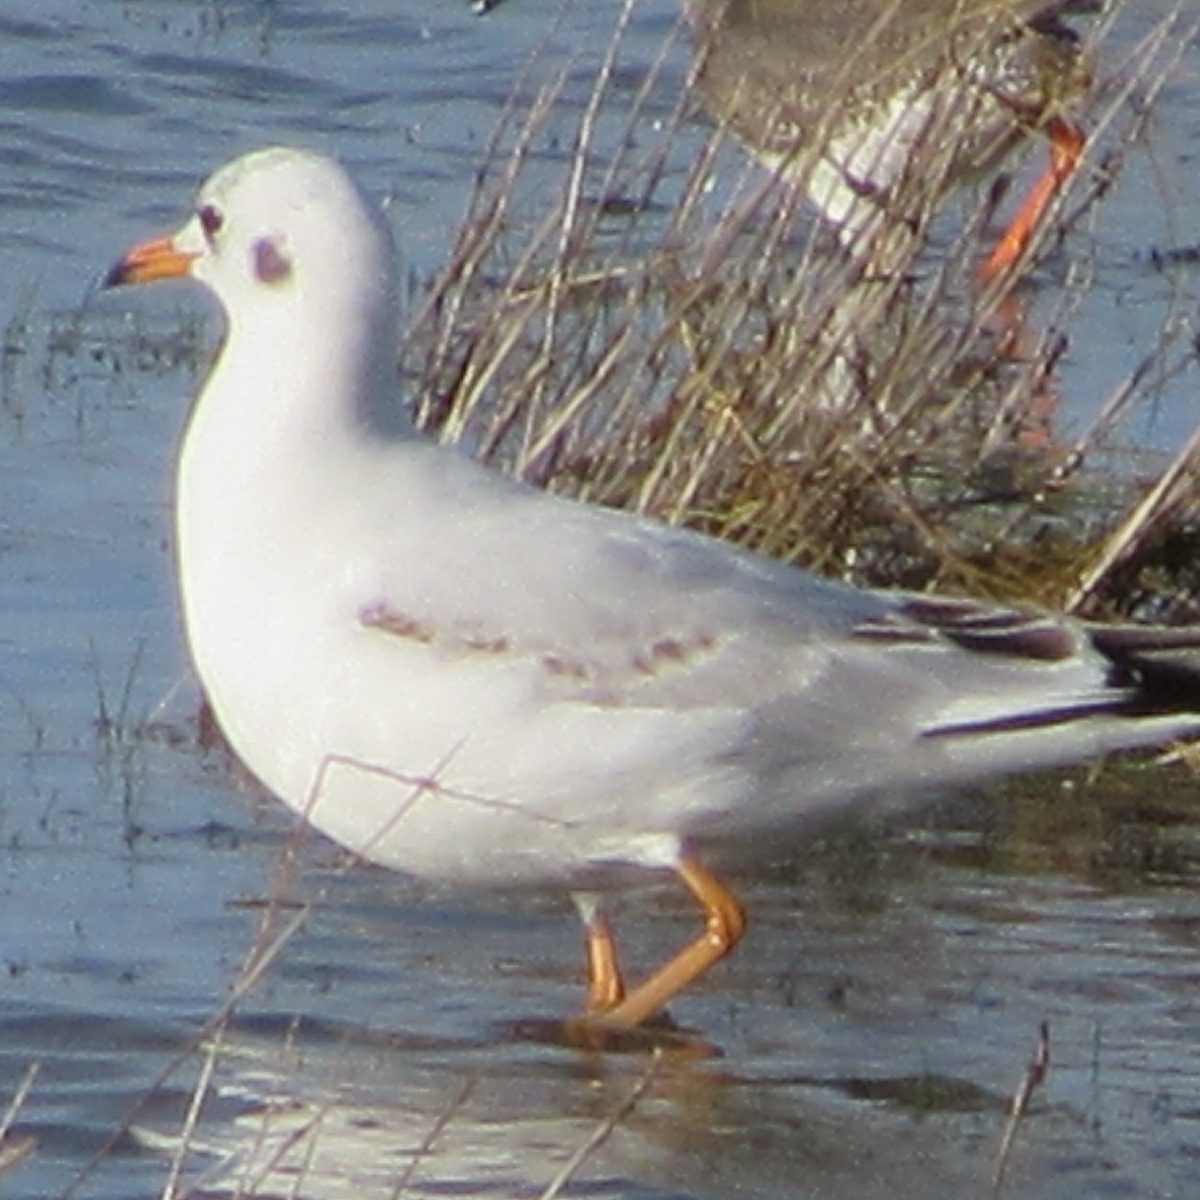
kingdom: Animalia
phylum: Chordata
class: Aves
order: Charadriiformes
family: Laridae
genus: Chroicocephalus
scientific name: Chroicocephalus ridibundus
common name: Black-headed gull
